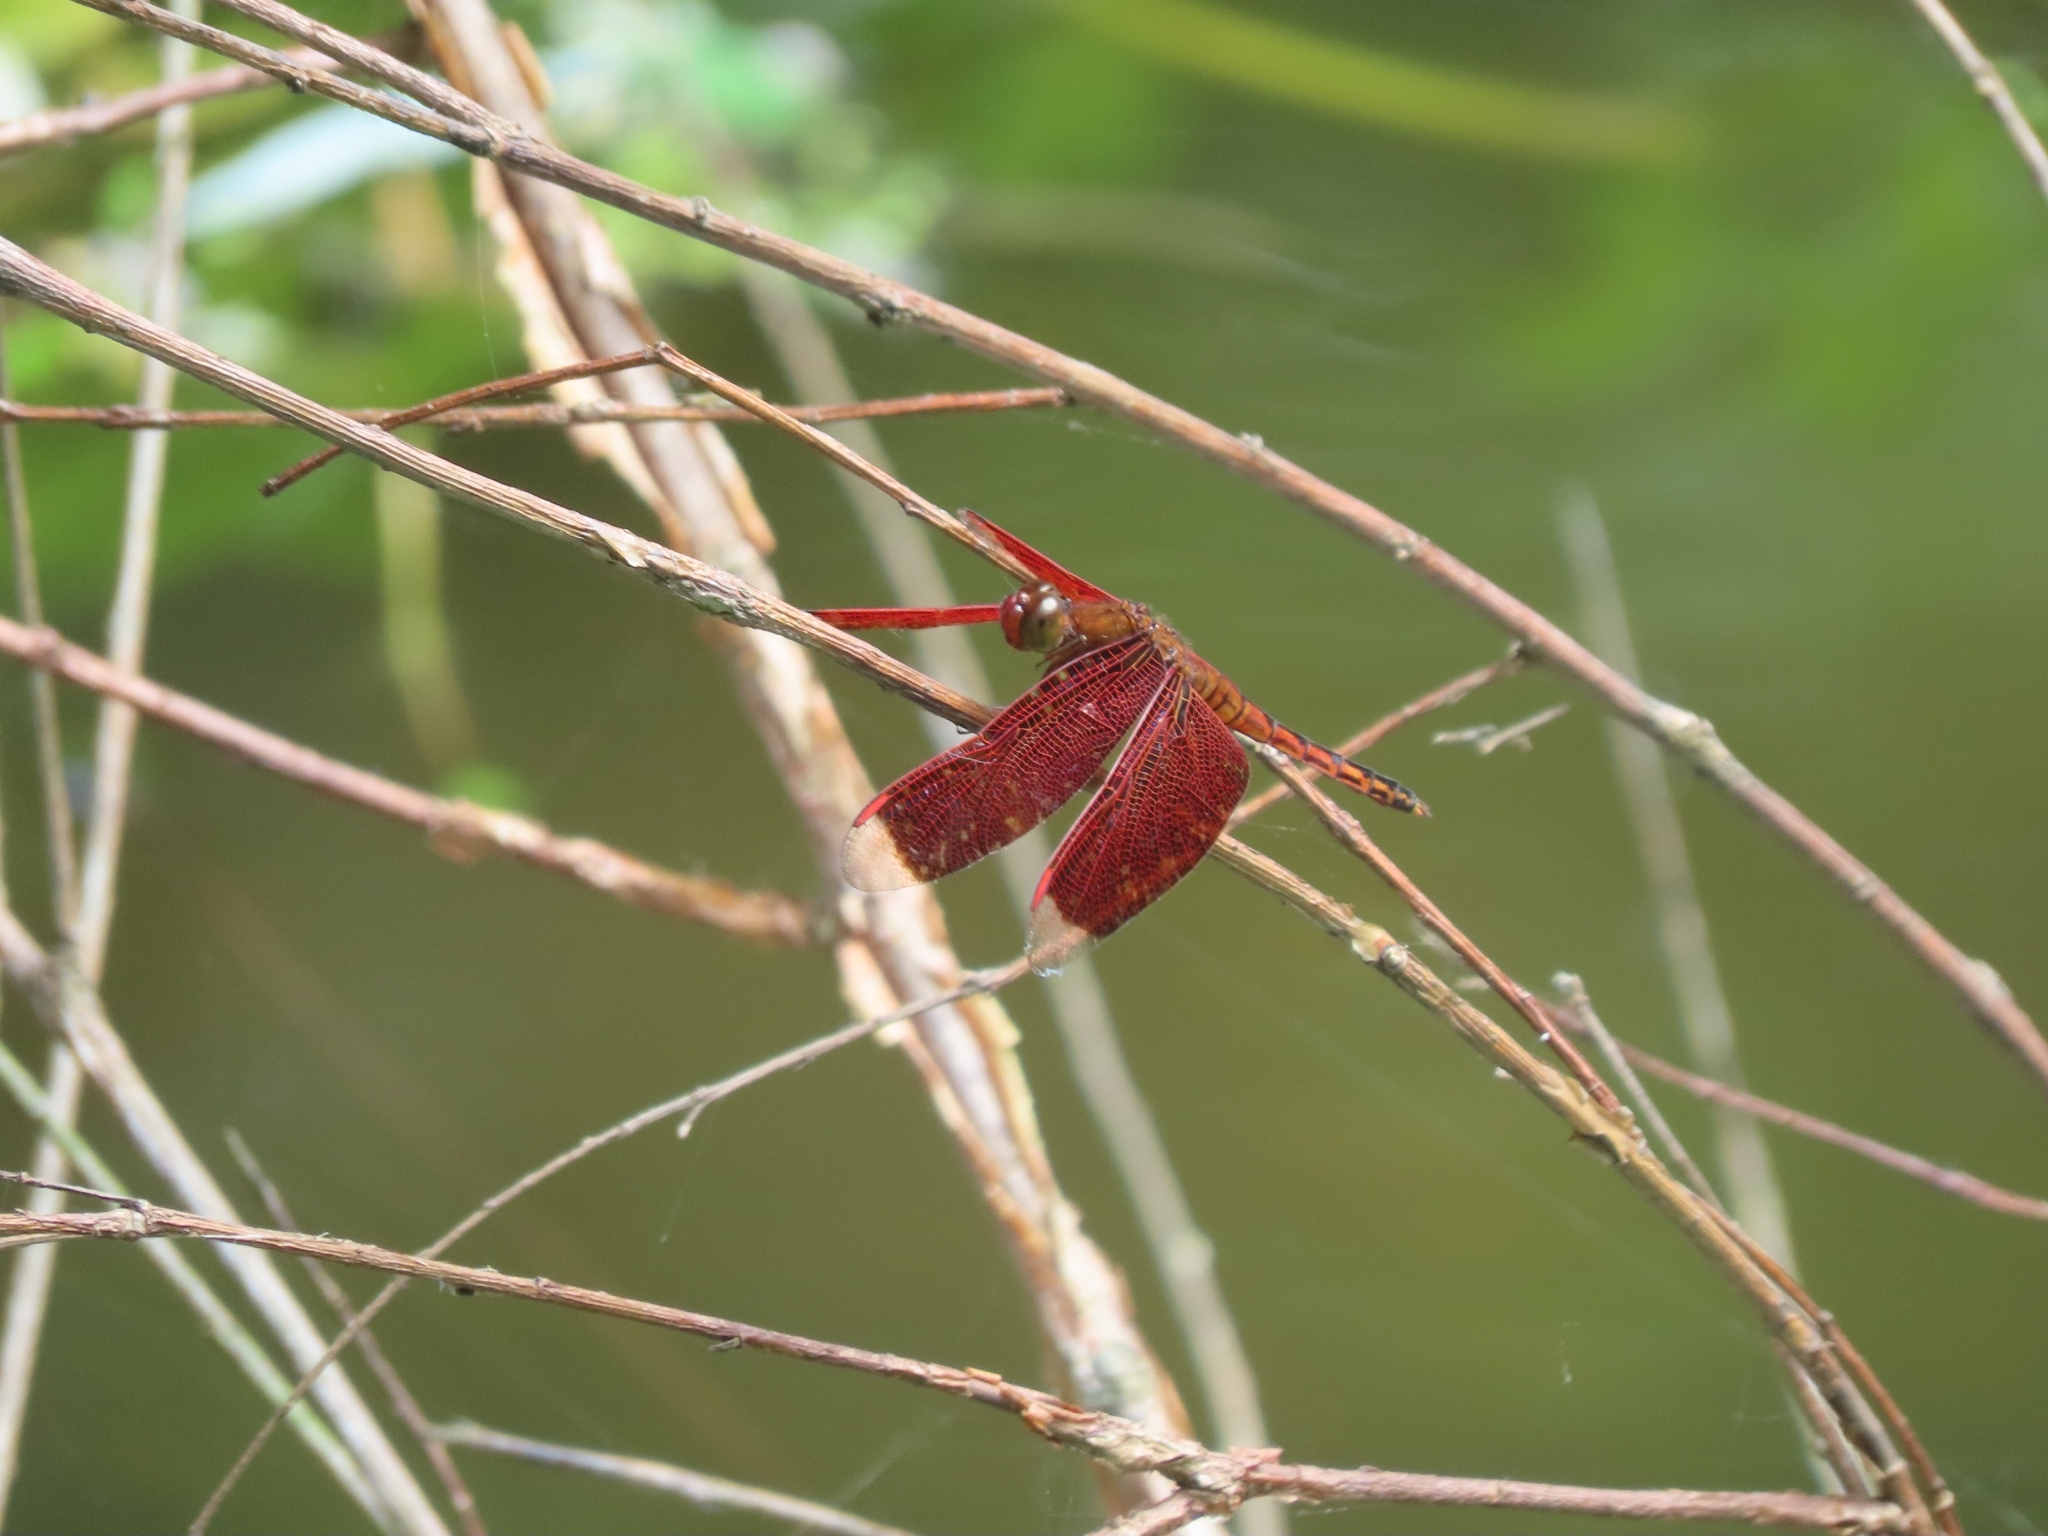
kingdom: Animalia
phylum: Arthropoda
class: Insecta
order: Odonata
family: Libellulidae
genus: Neurothemis
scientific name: Neurothemis taiwanensis
